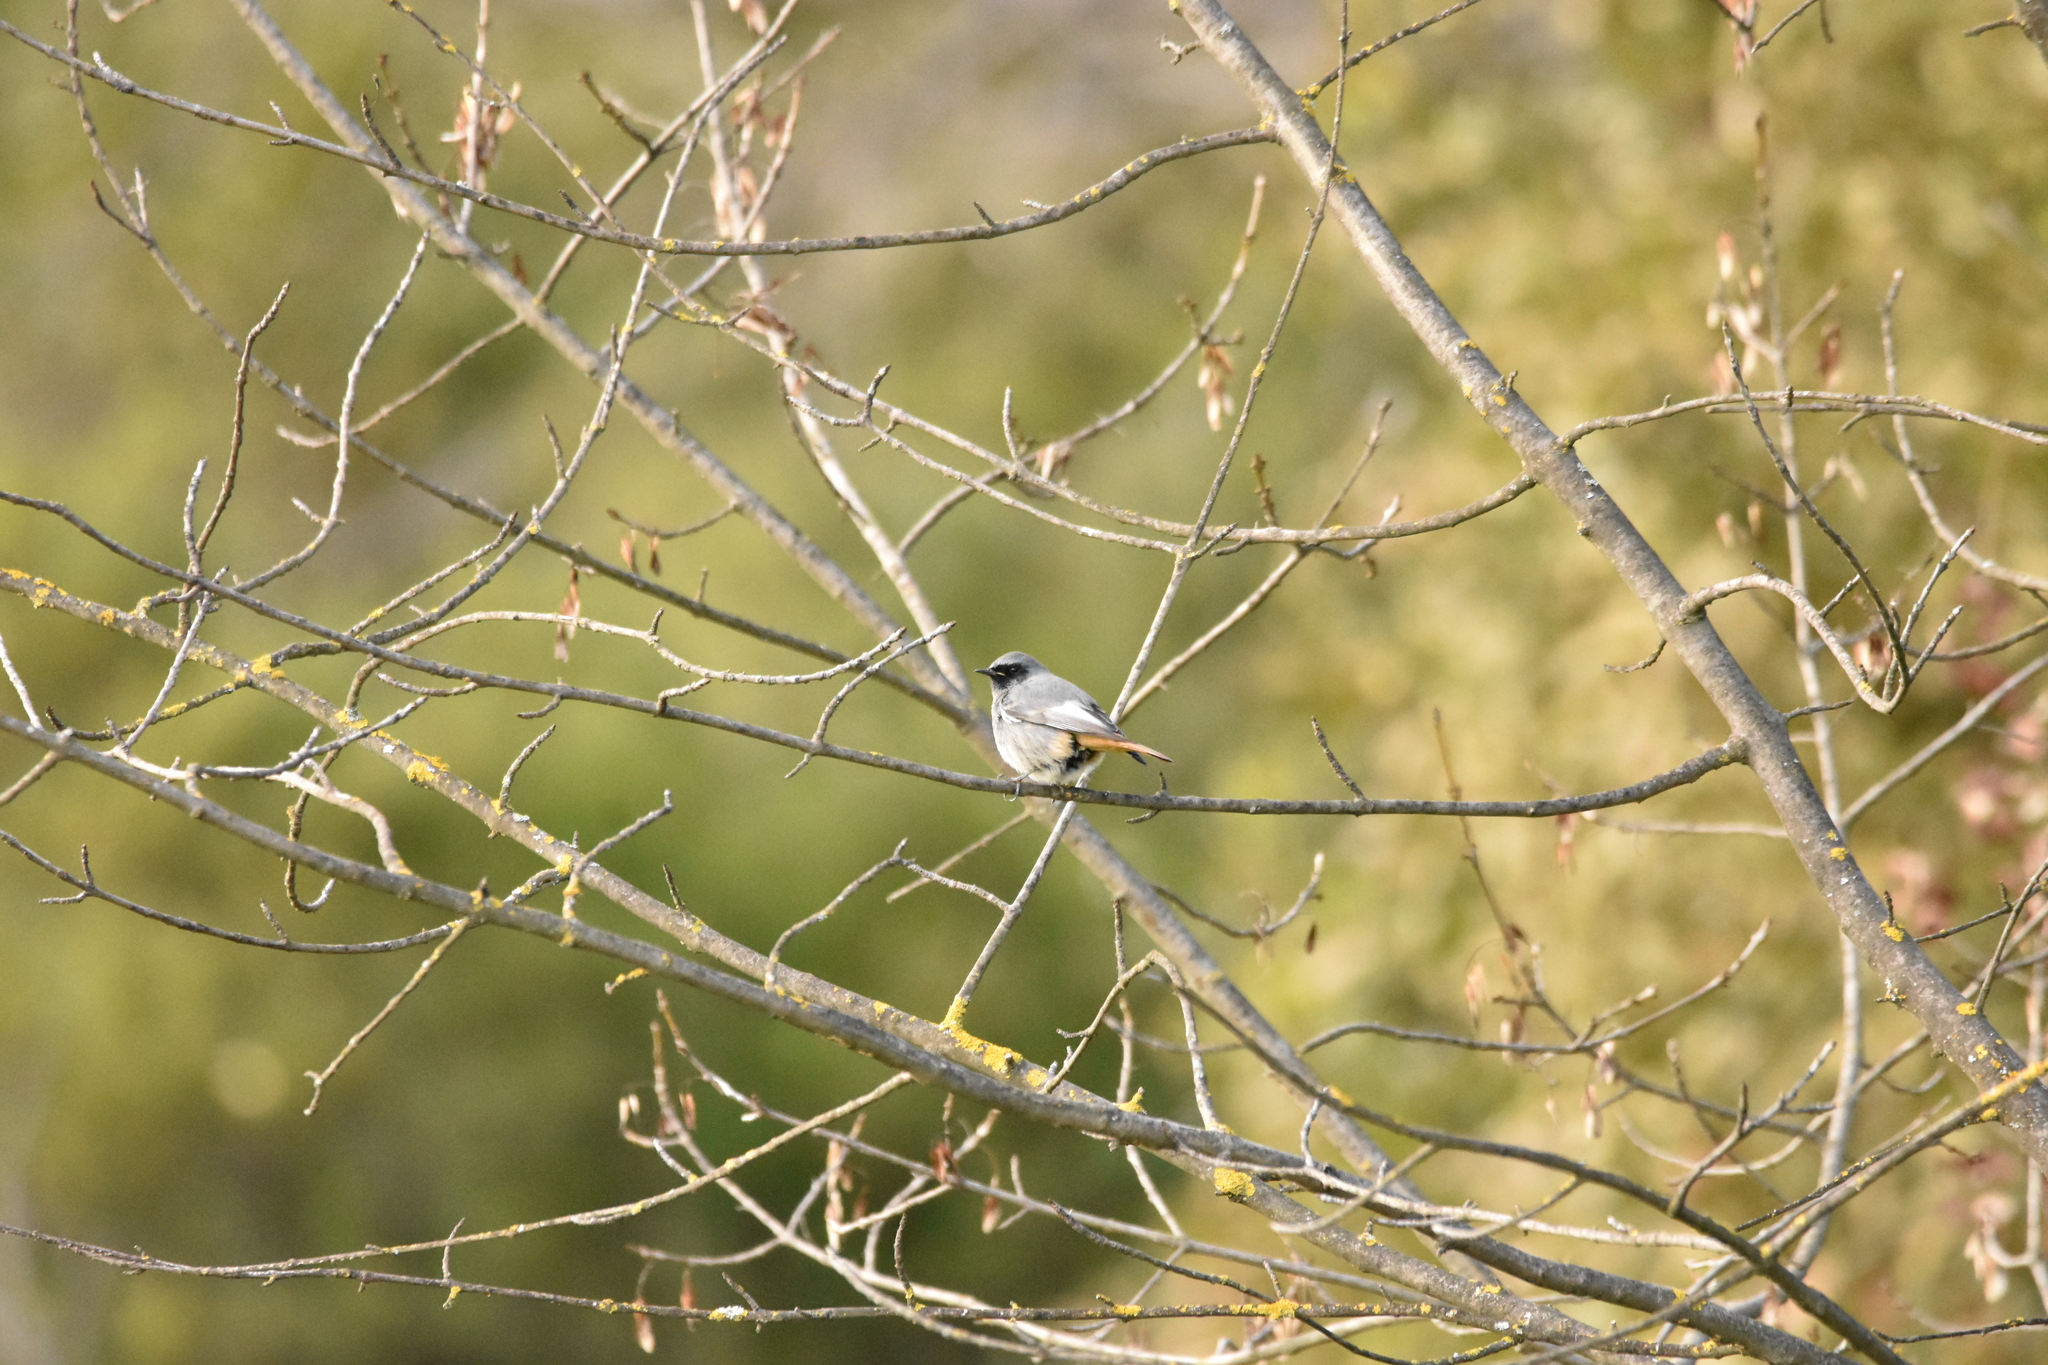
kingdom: Animalia
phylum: Chordata
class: Aves
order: Passeriformes
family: Muscicapidae
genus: Phoenicurus
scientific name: Phoenicurus ochruros
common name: Black redstart
